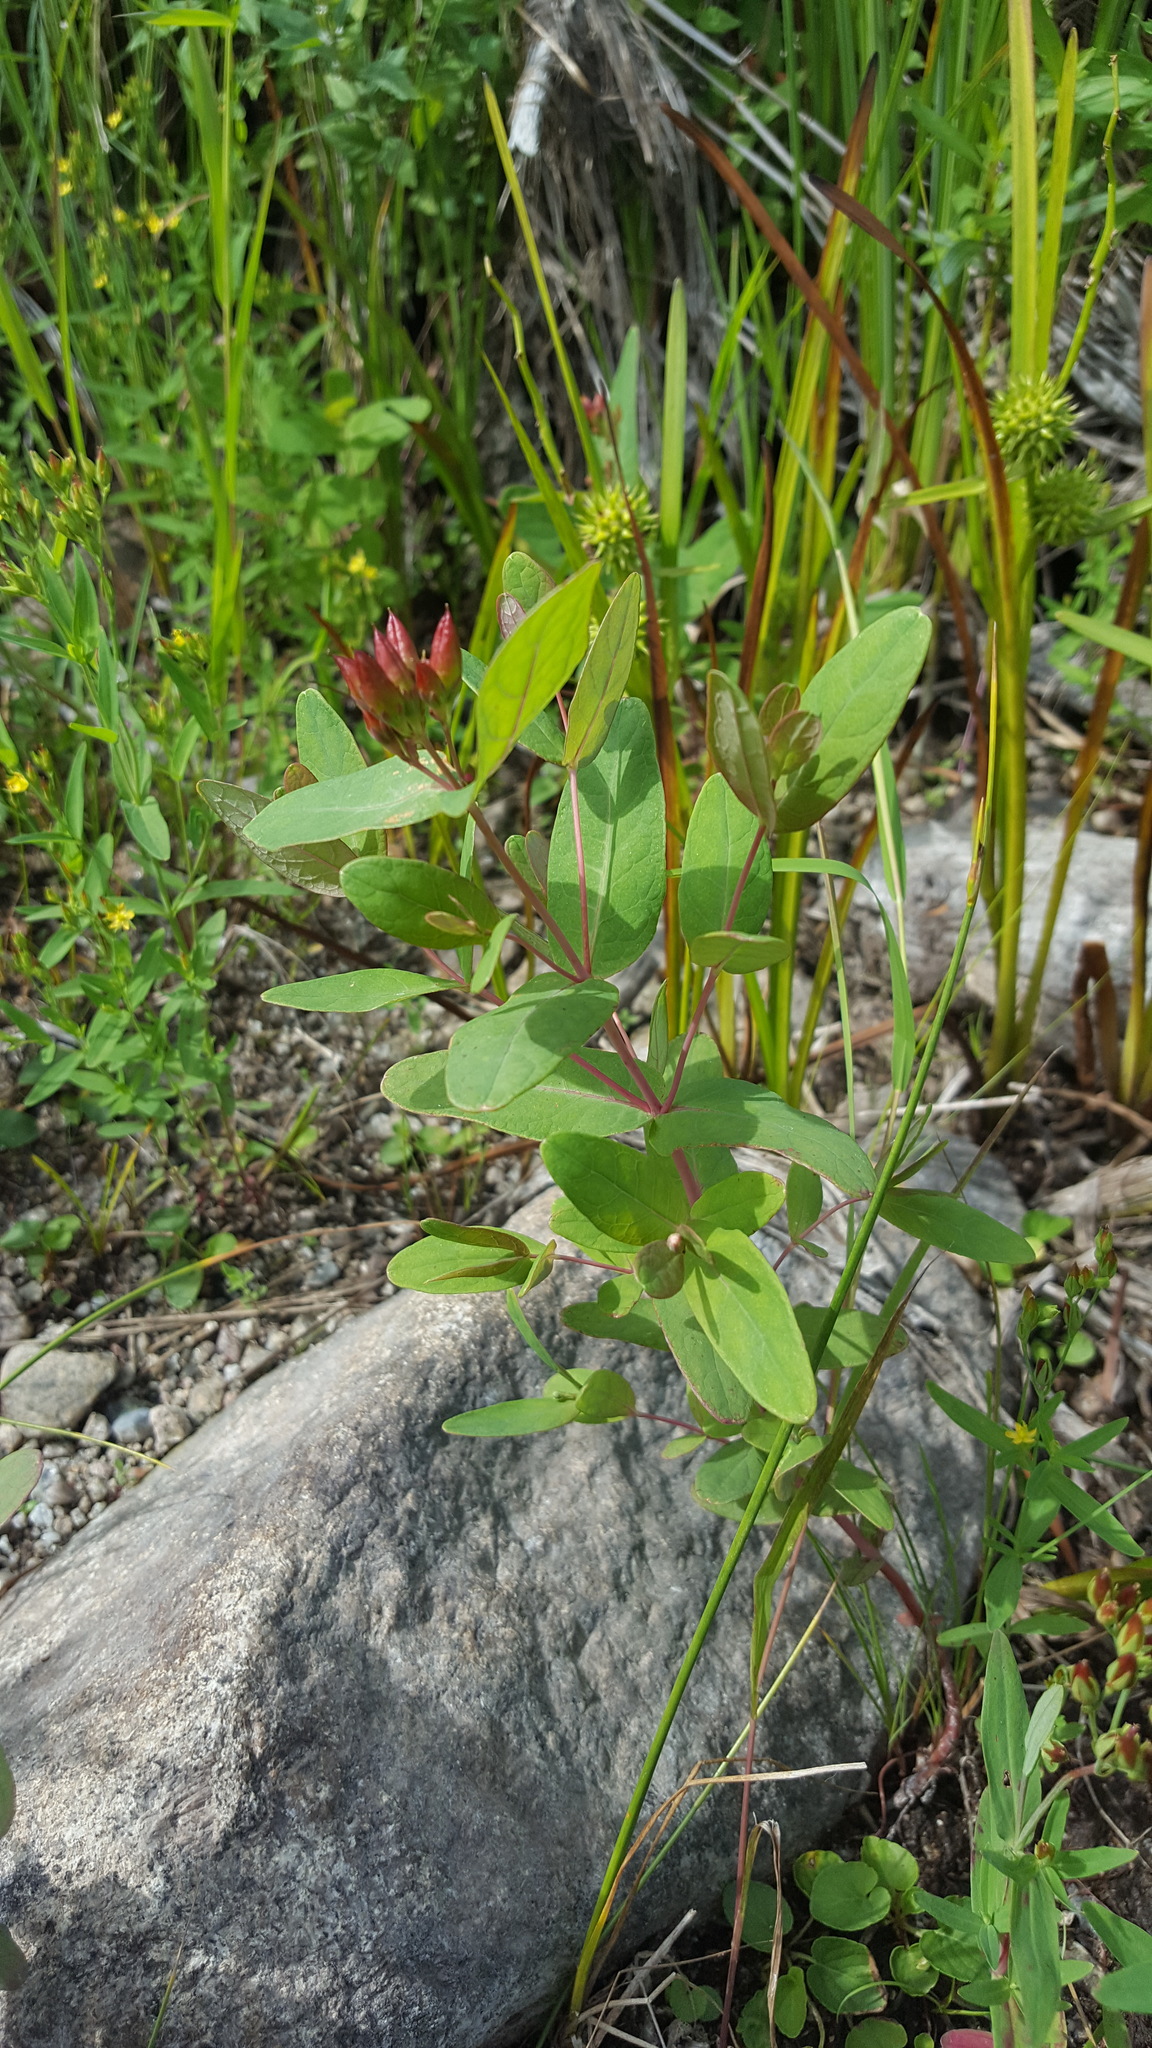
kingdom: Plantae
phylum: Tracheophyta
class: Magnoliopsida
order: Malpighiales
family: Hypericaceae
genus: Triadenum
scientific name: Triadenum fraseri
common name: Fraser's marsh st. johnswort
